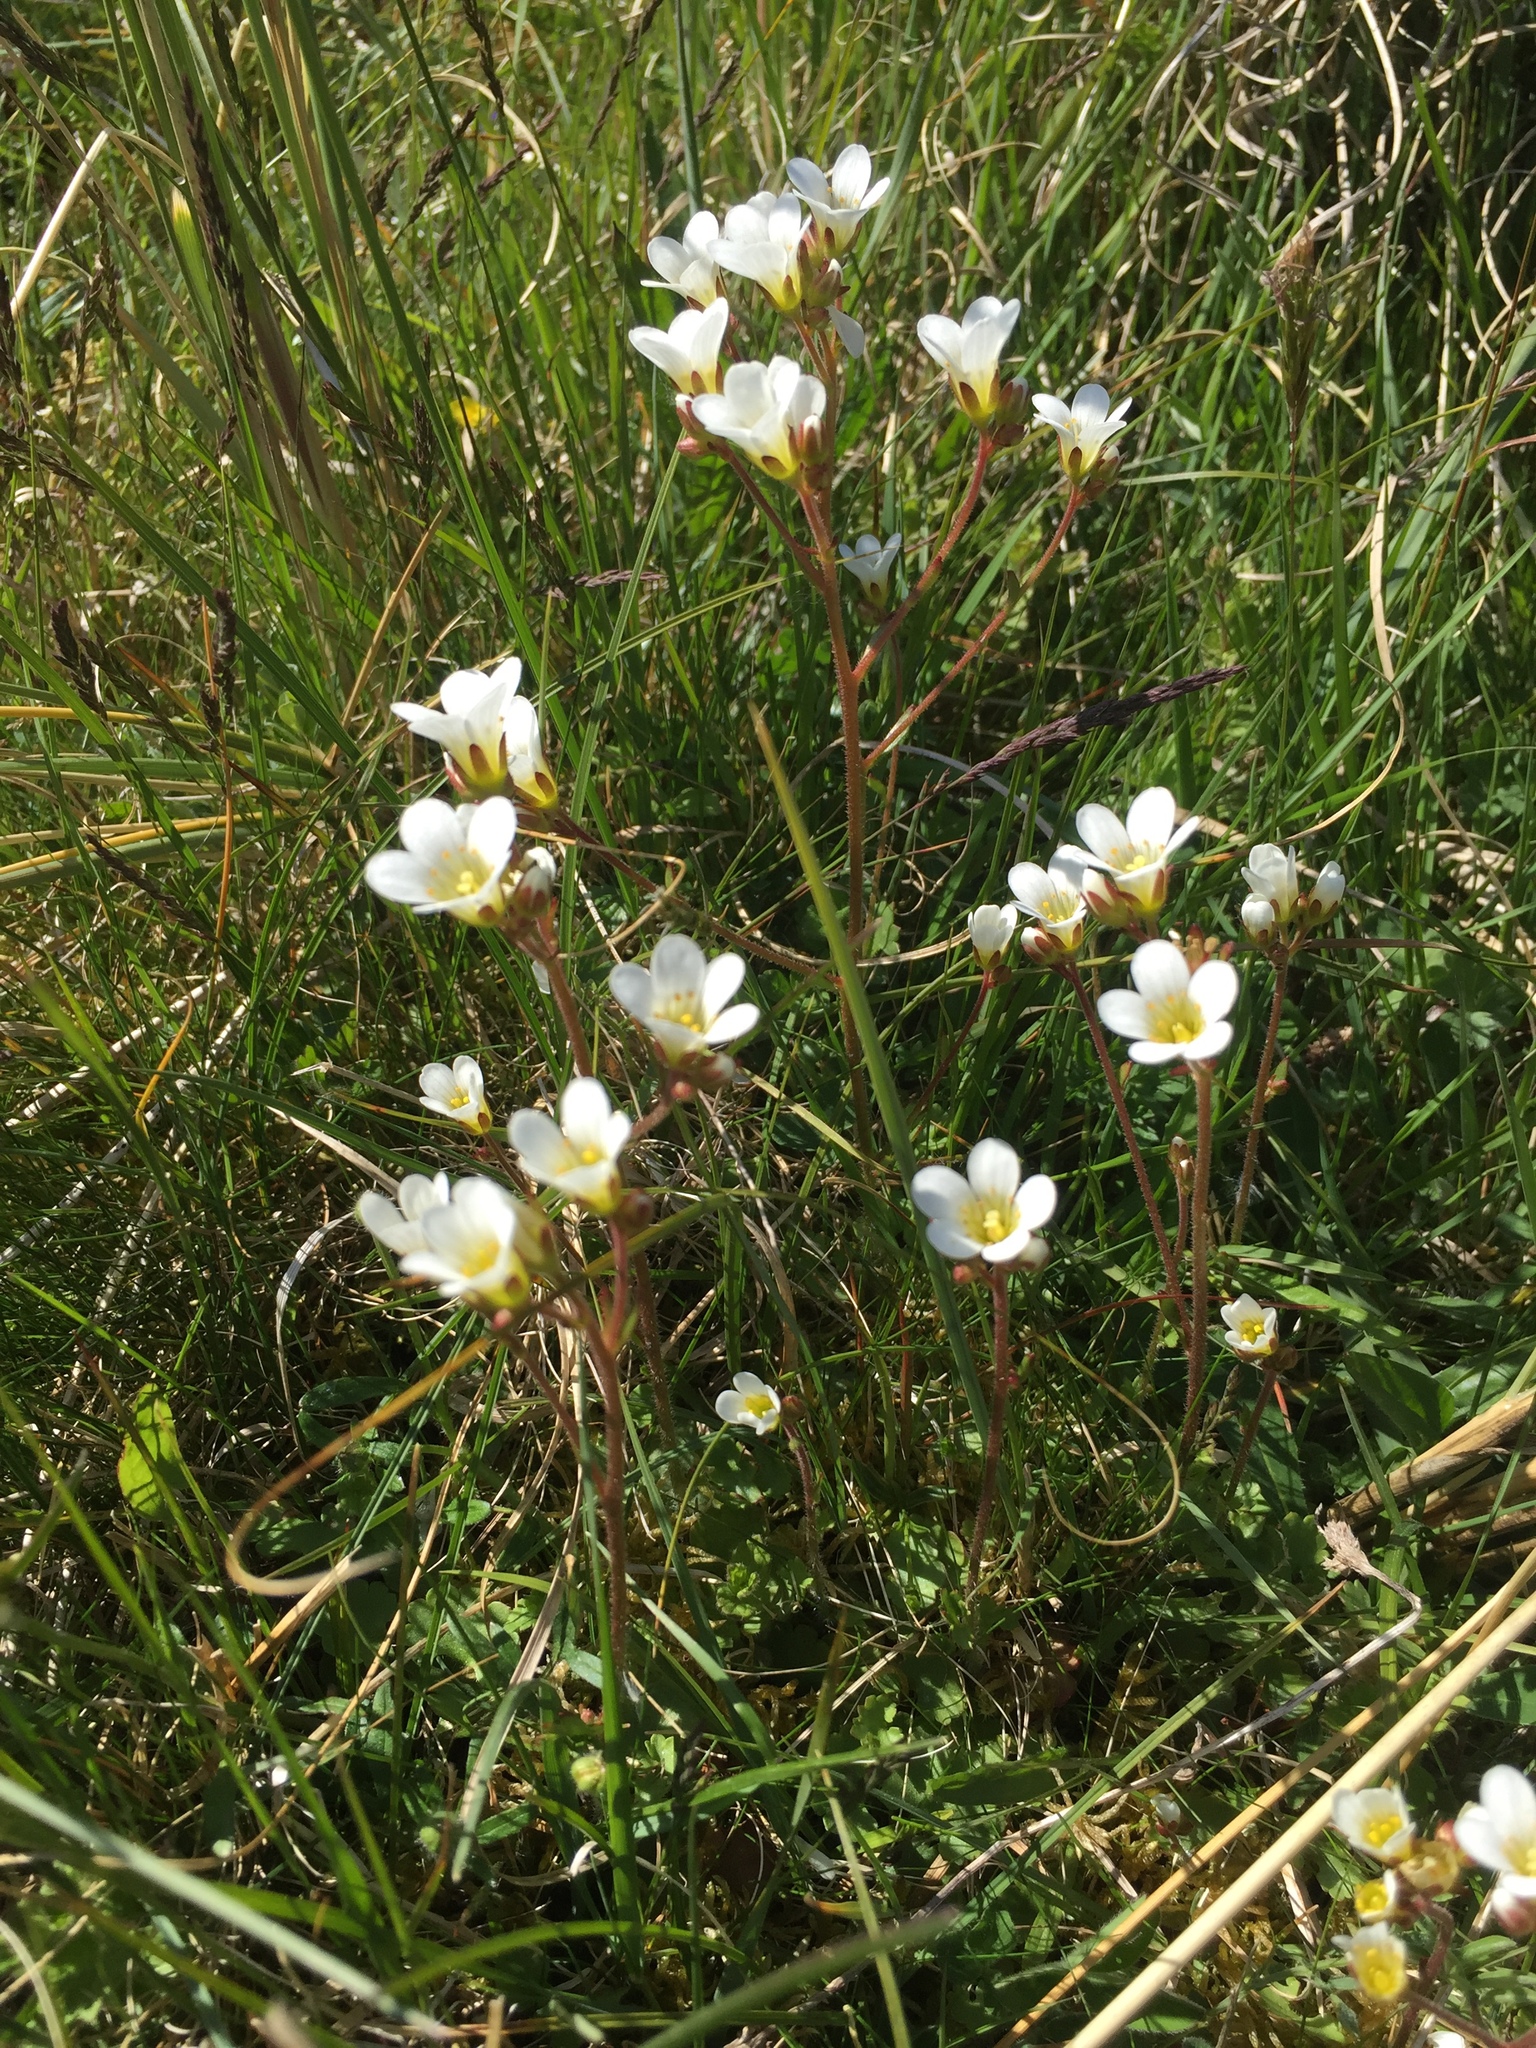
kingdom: Plantae
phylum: Tracheophyta
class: Magnoliopsida
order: Saxifragales
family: Saxifragaceae
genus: Saxifraga
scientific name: Saxifraga granulata
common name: Meadow saxifrage
